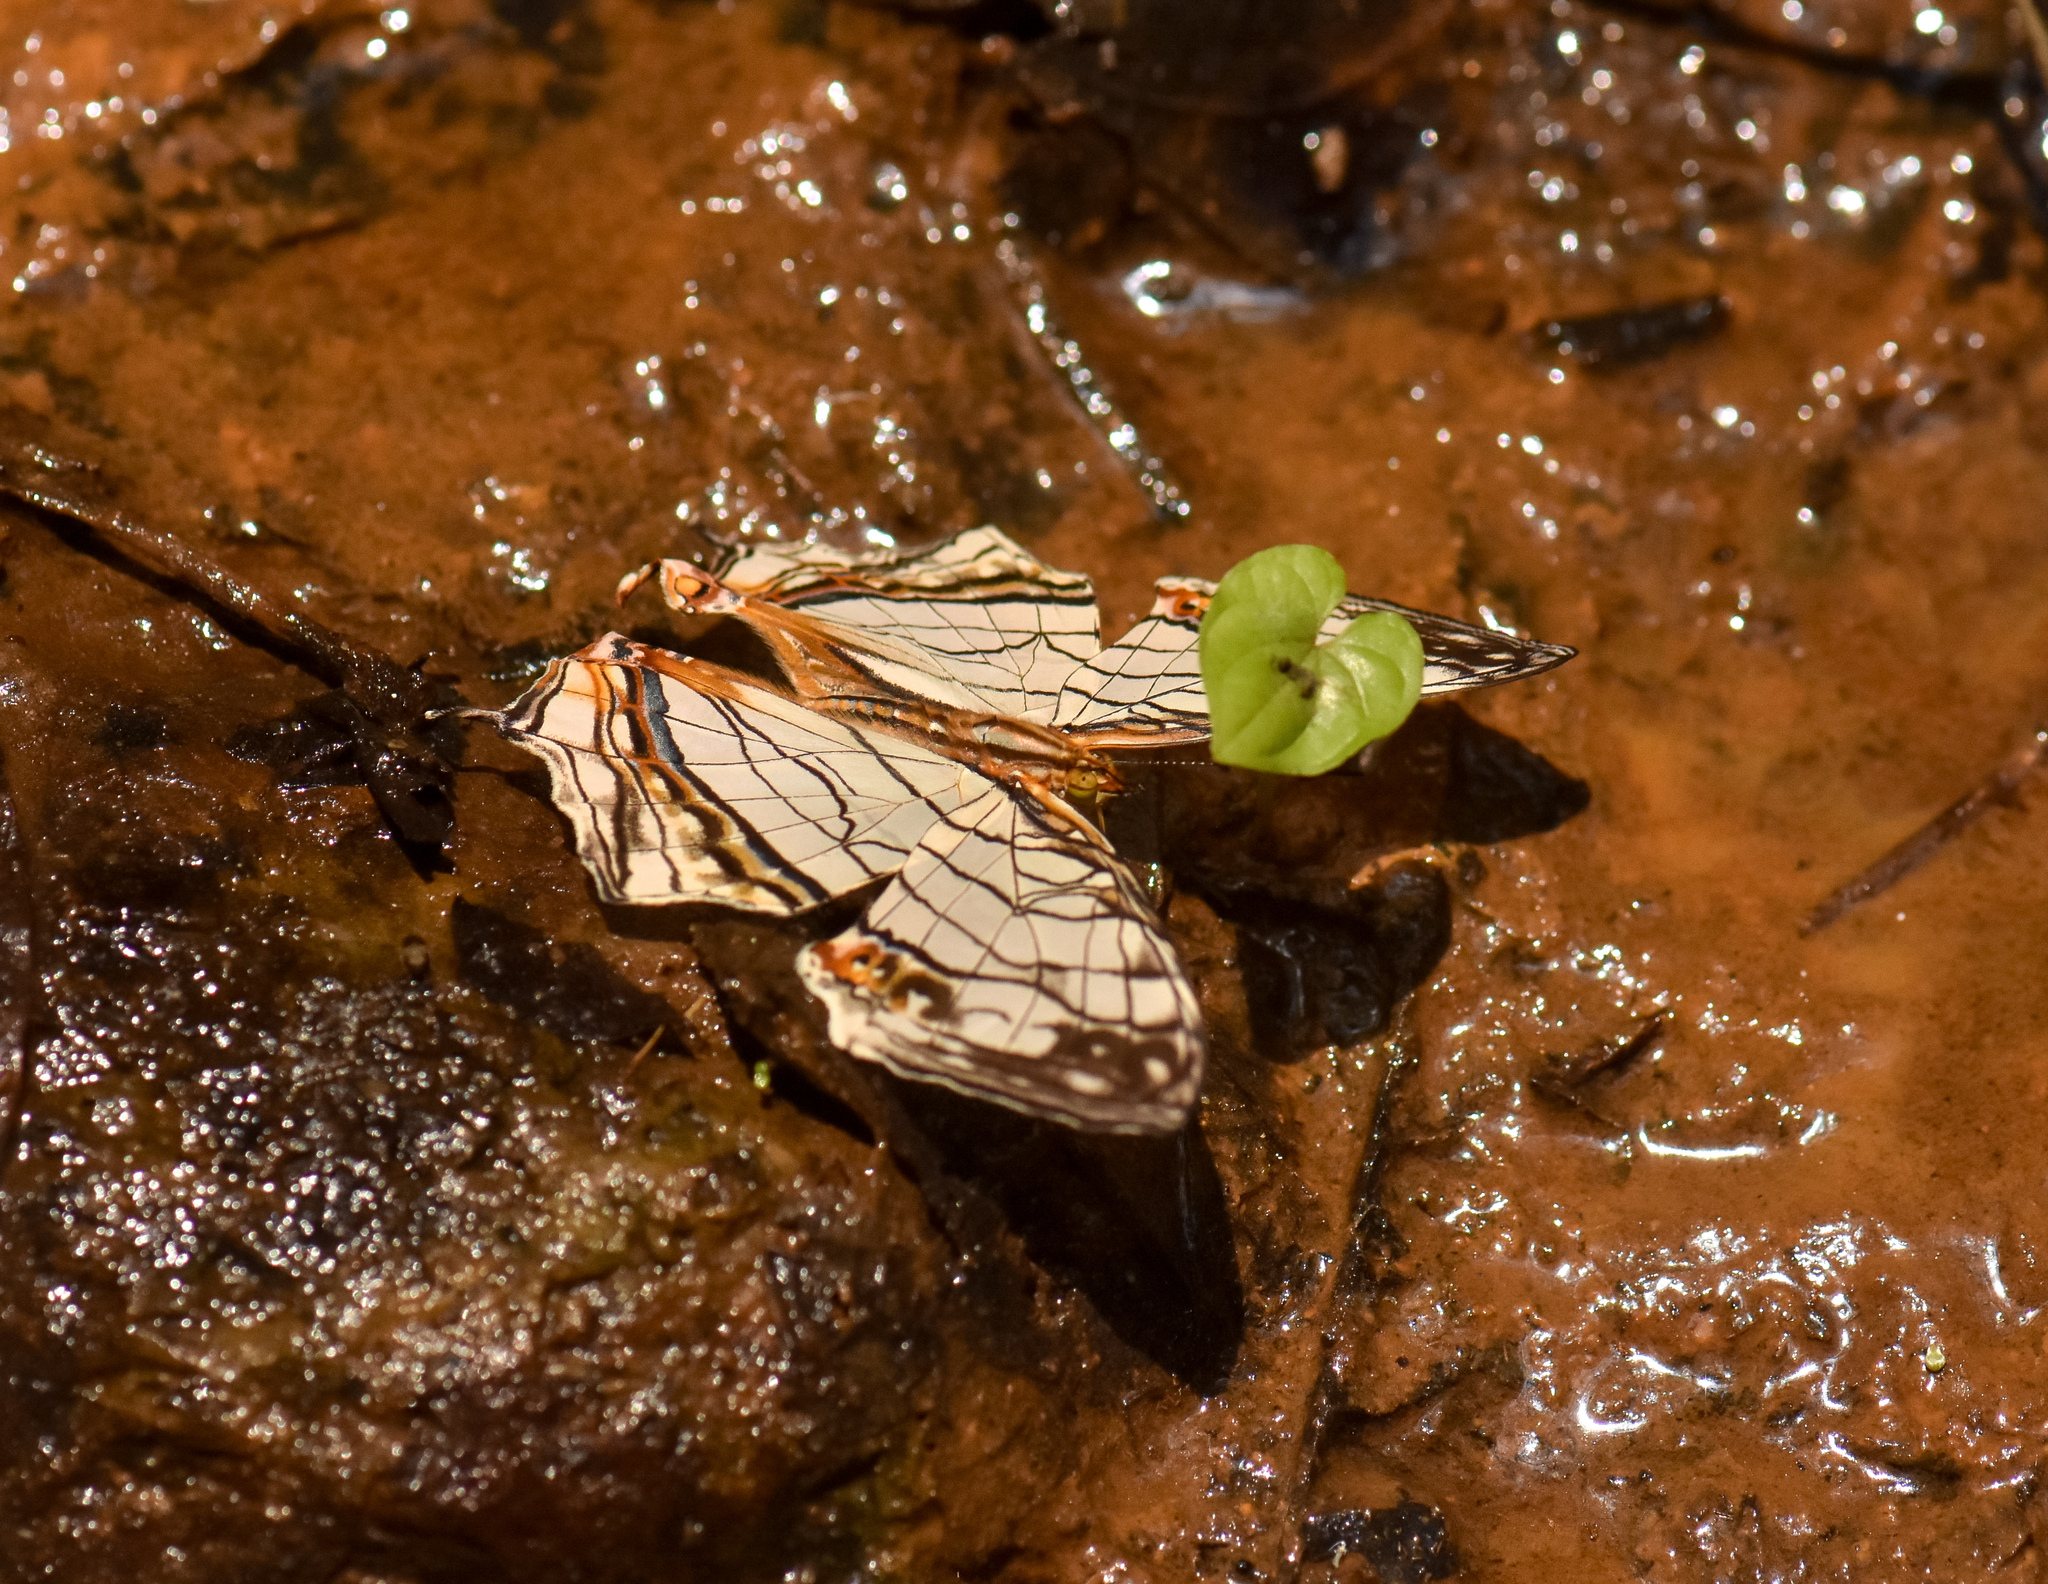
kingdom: Animalia
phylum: Arthropoda
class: Insecta
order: Lepidoptera
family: Nymphalidae
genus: Cyrestis
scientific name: Cyrestis thyodamas
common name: Common mapwing
